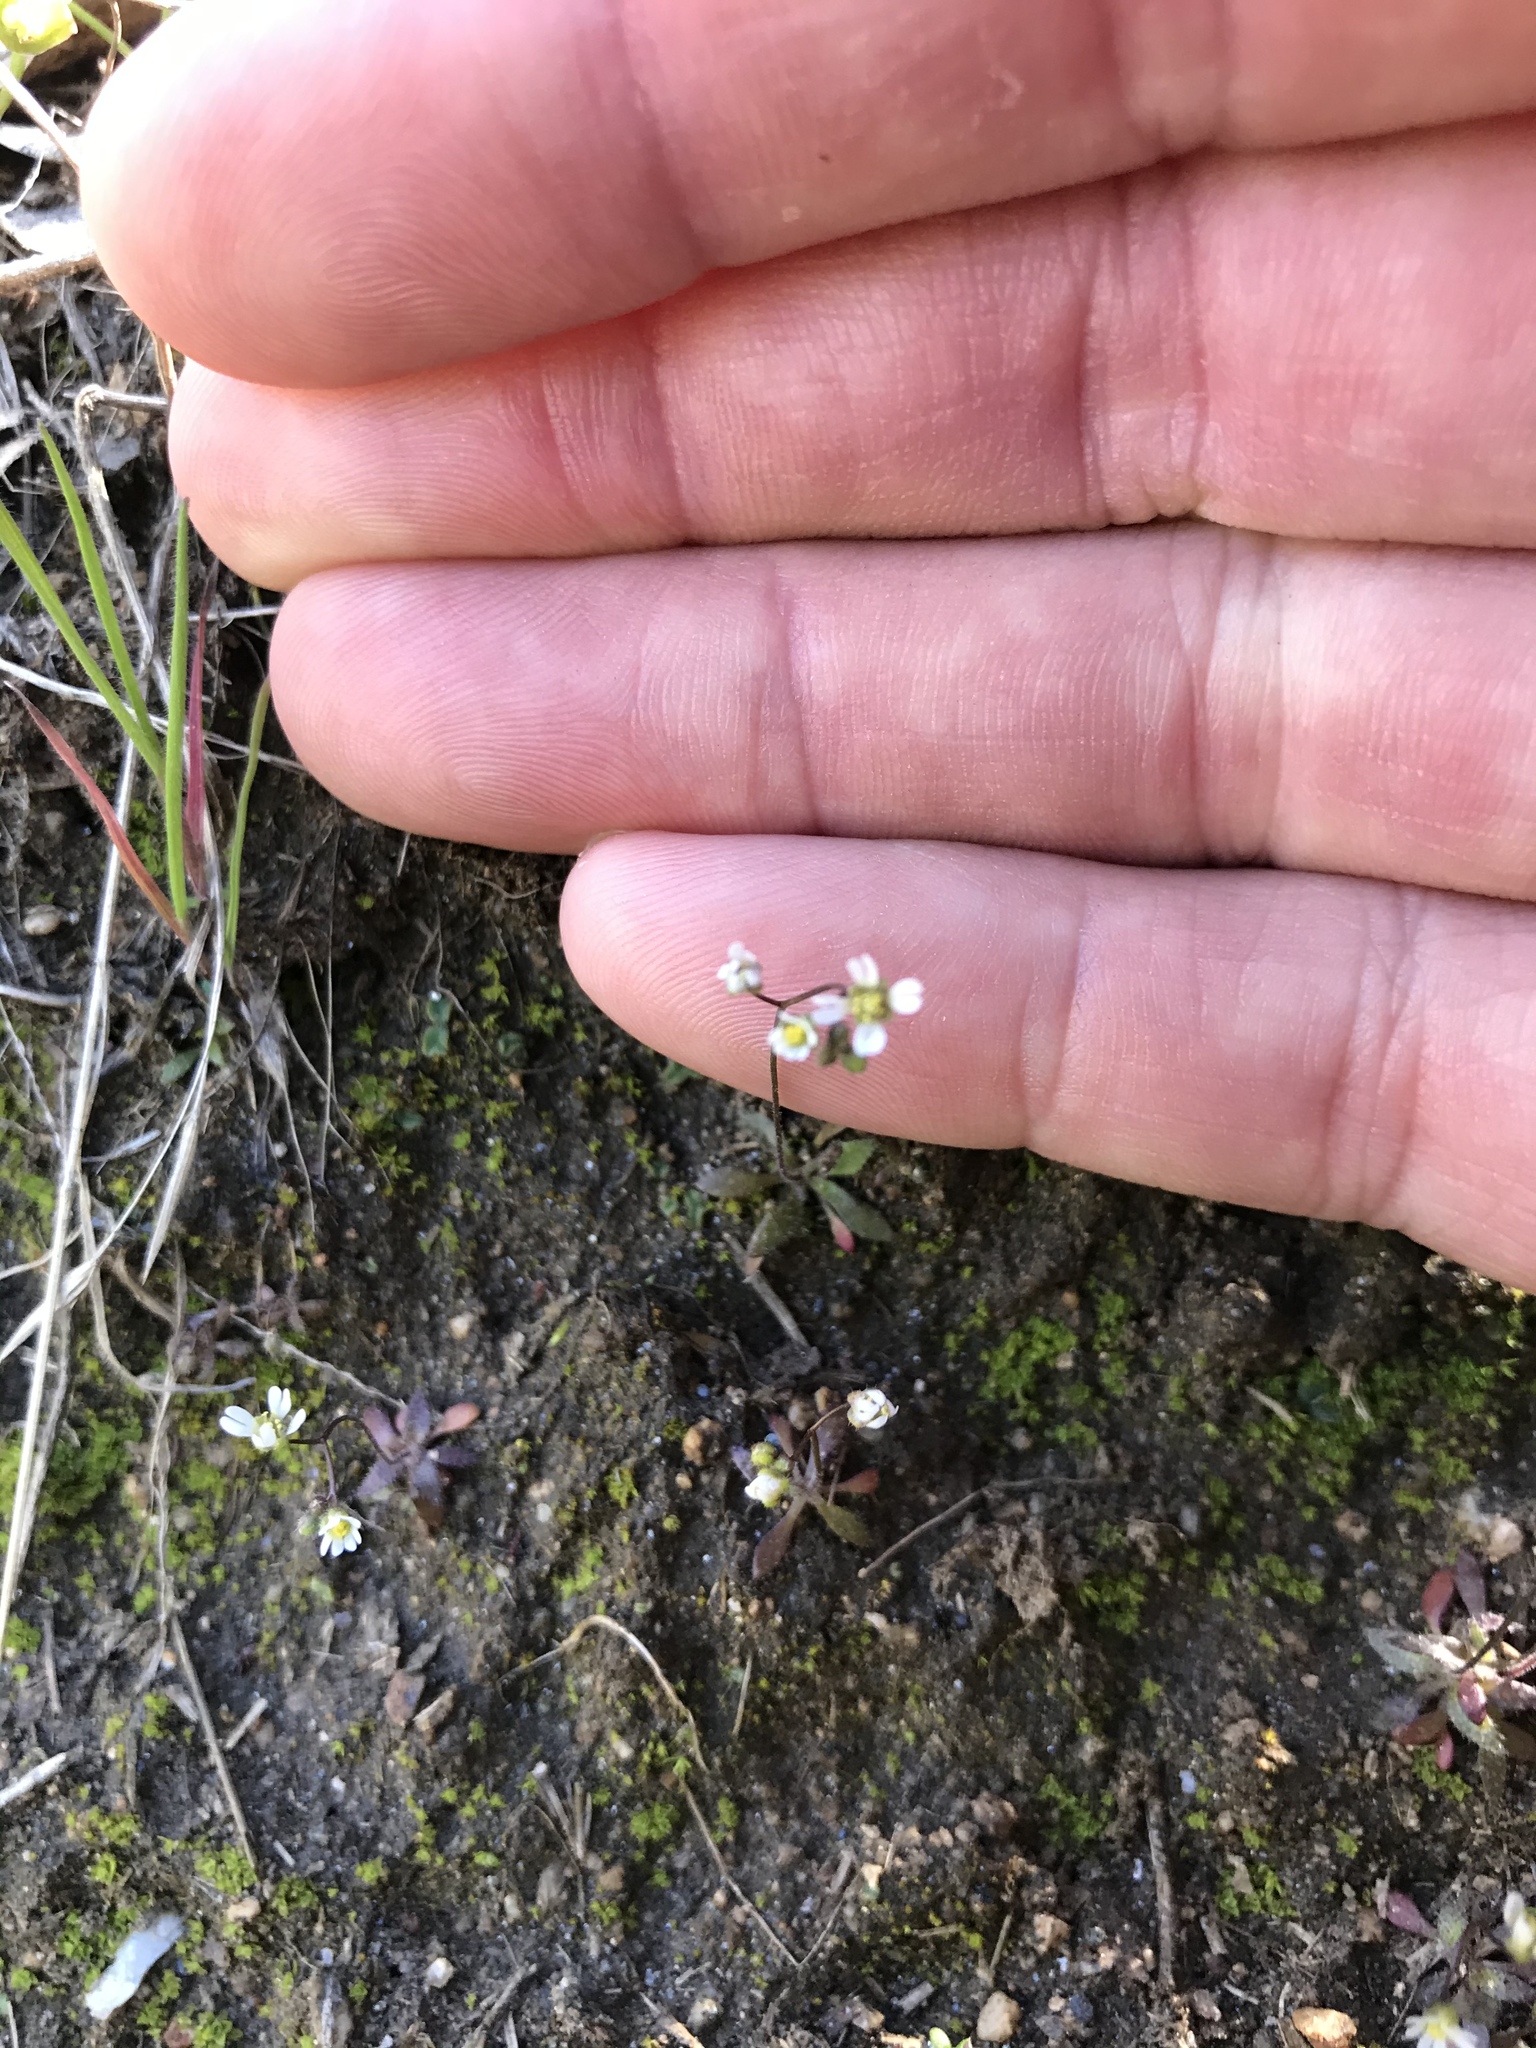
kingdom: Plantae
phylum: Tracheophyta
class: Magnoliopsida
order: Brassicales
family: Brassicaceae
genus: Draba
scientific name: Draba verna
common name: Spring draba
